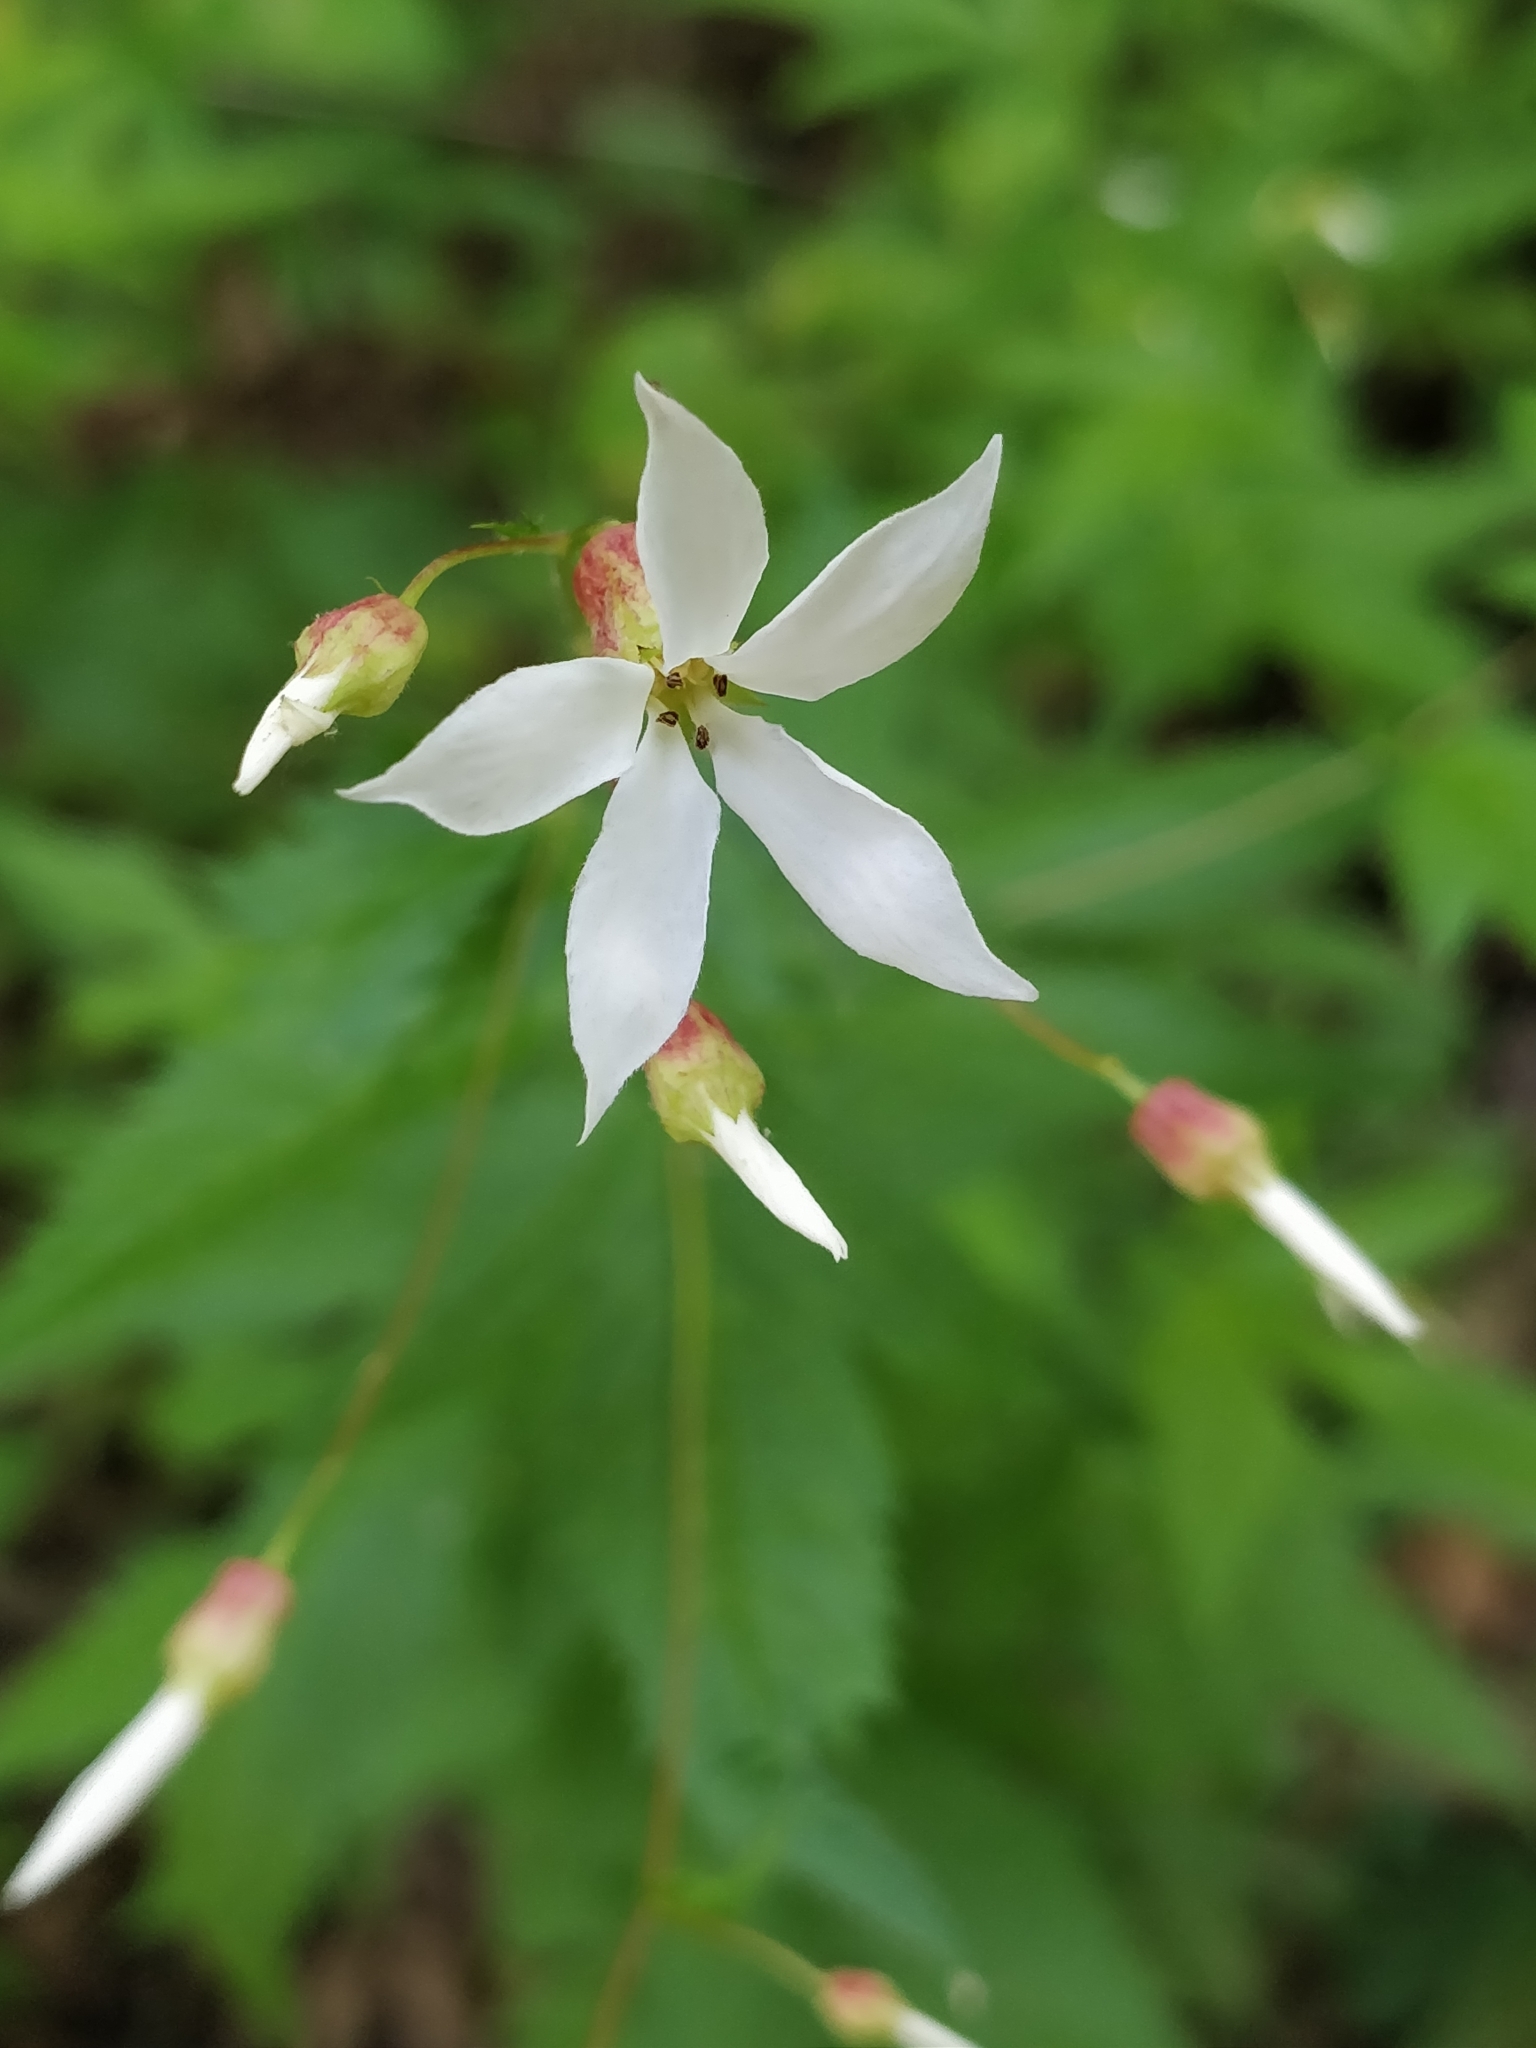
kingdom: Plantae
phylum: Tracheophyta
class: Magnoliopsida
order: Rosales
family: Rosaceae
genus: Gillenia
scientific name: Gillenia stipulata
